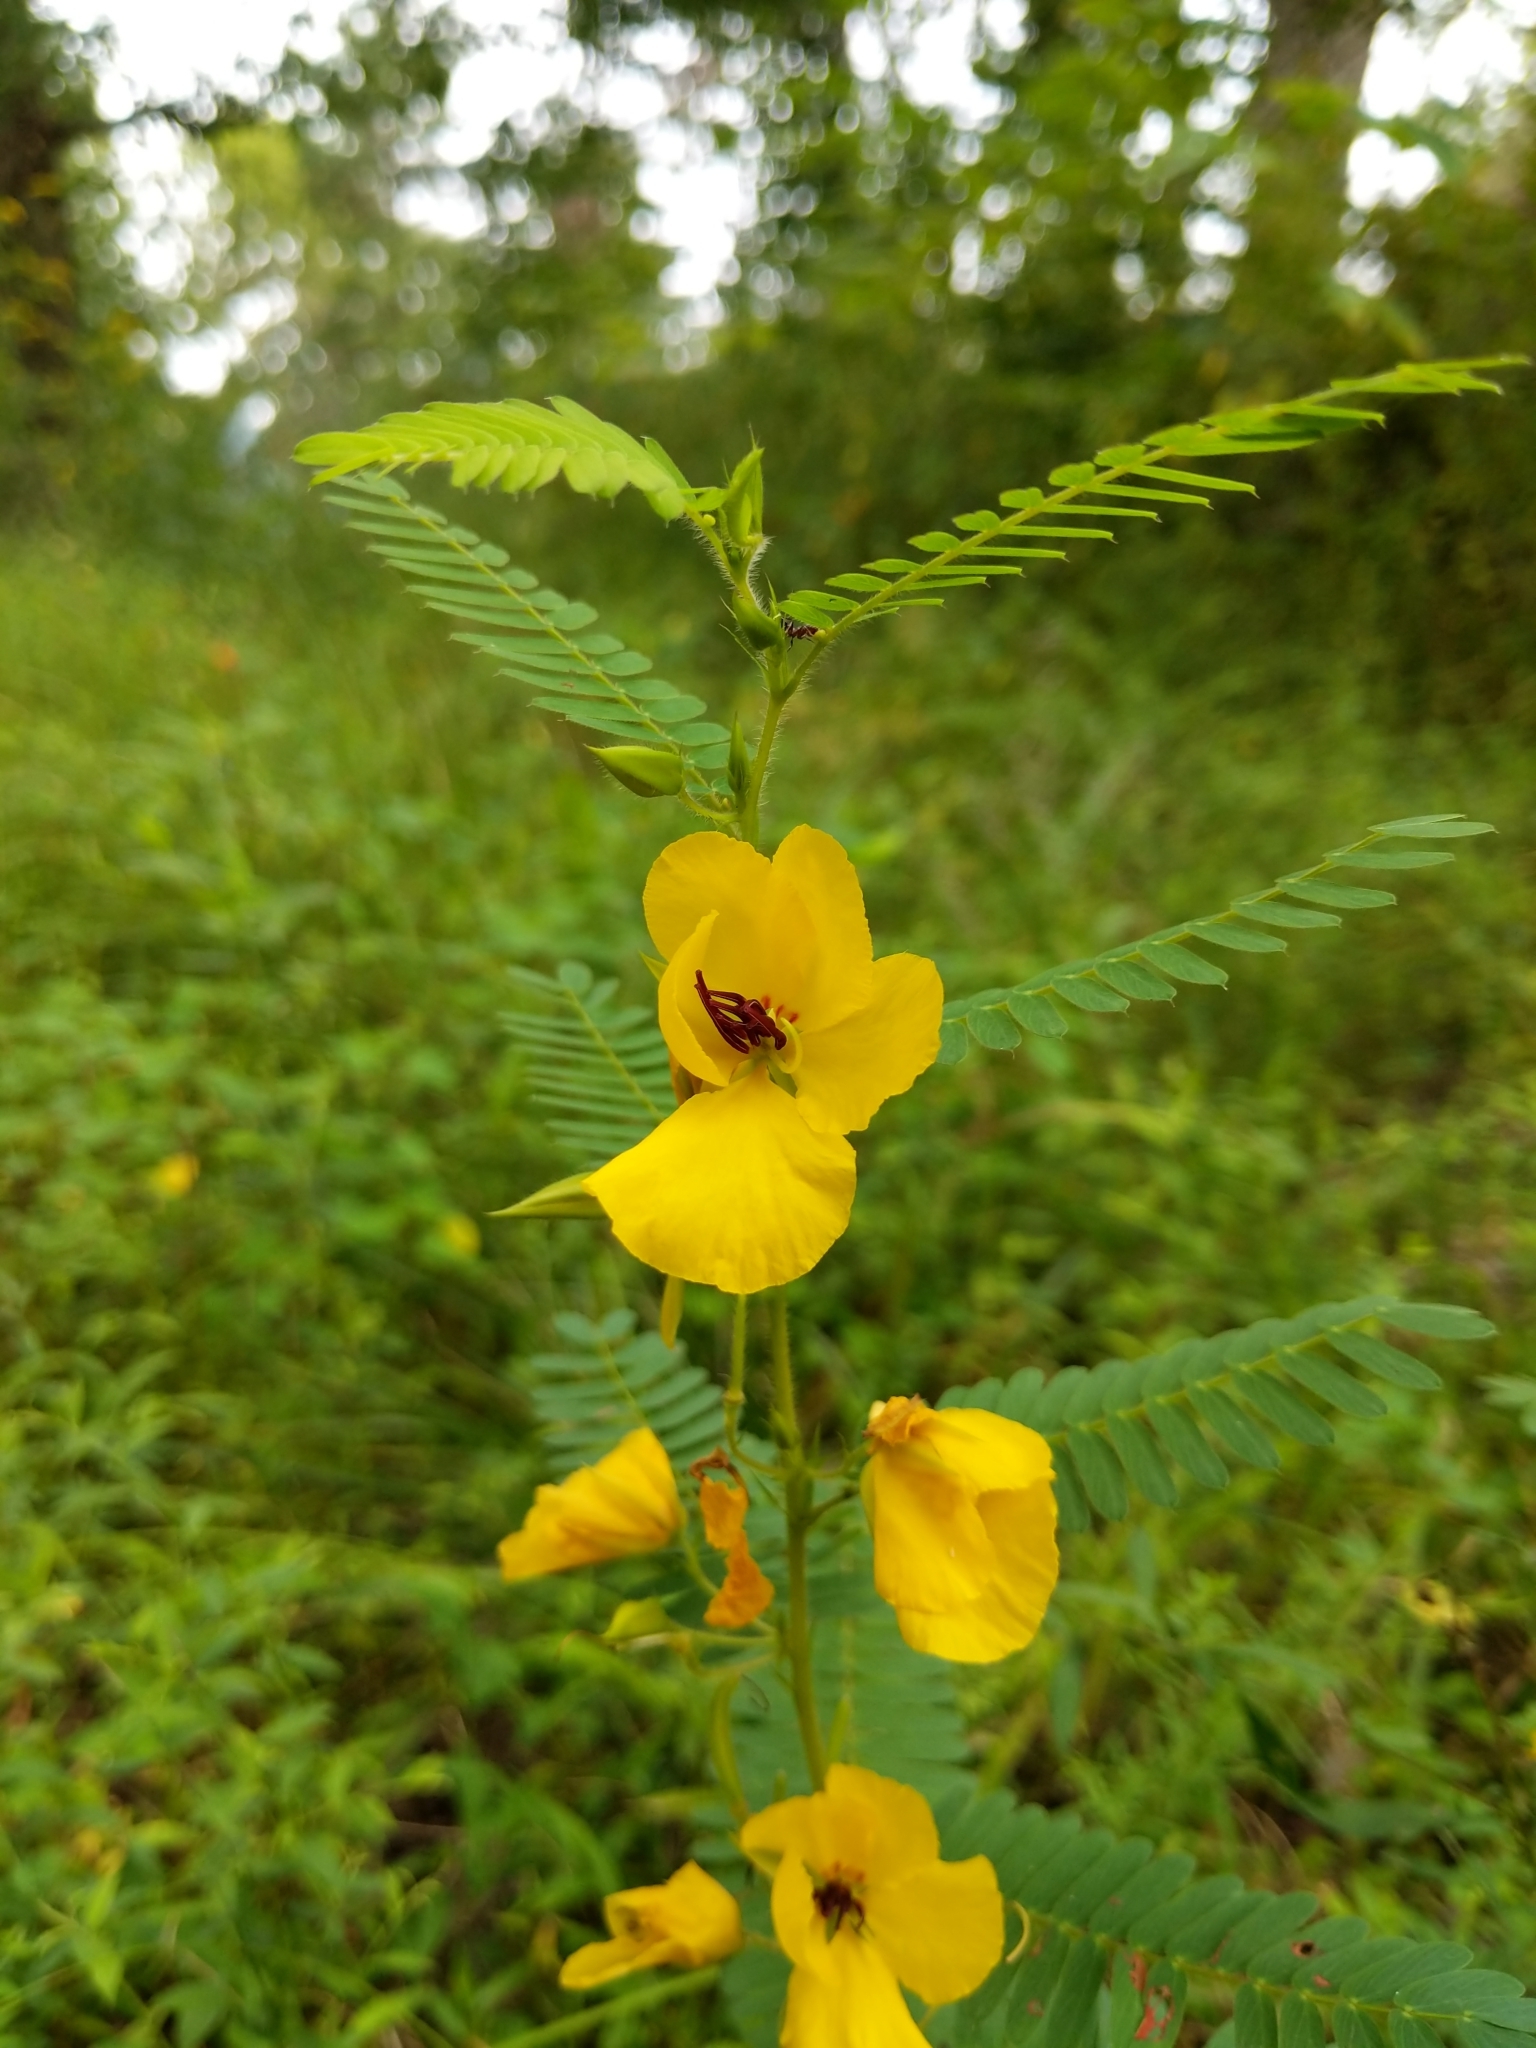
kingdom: Plantae
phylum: Tracheophyta
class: Magnoliopsida
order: Fabales
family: Fabaceae
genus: Chamaecrista
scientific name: Chamaecrista fasciculata
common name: Golden cassia
